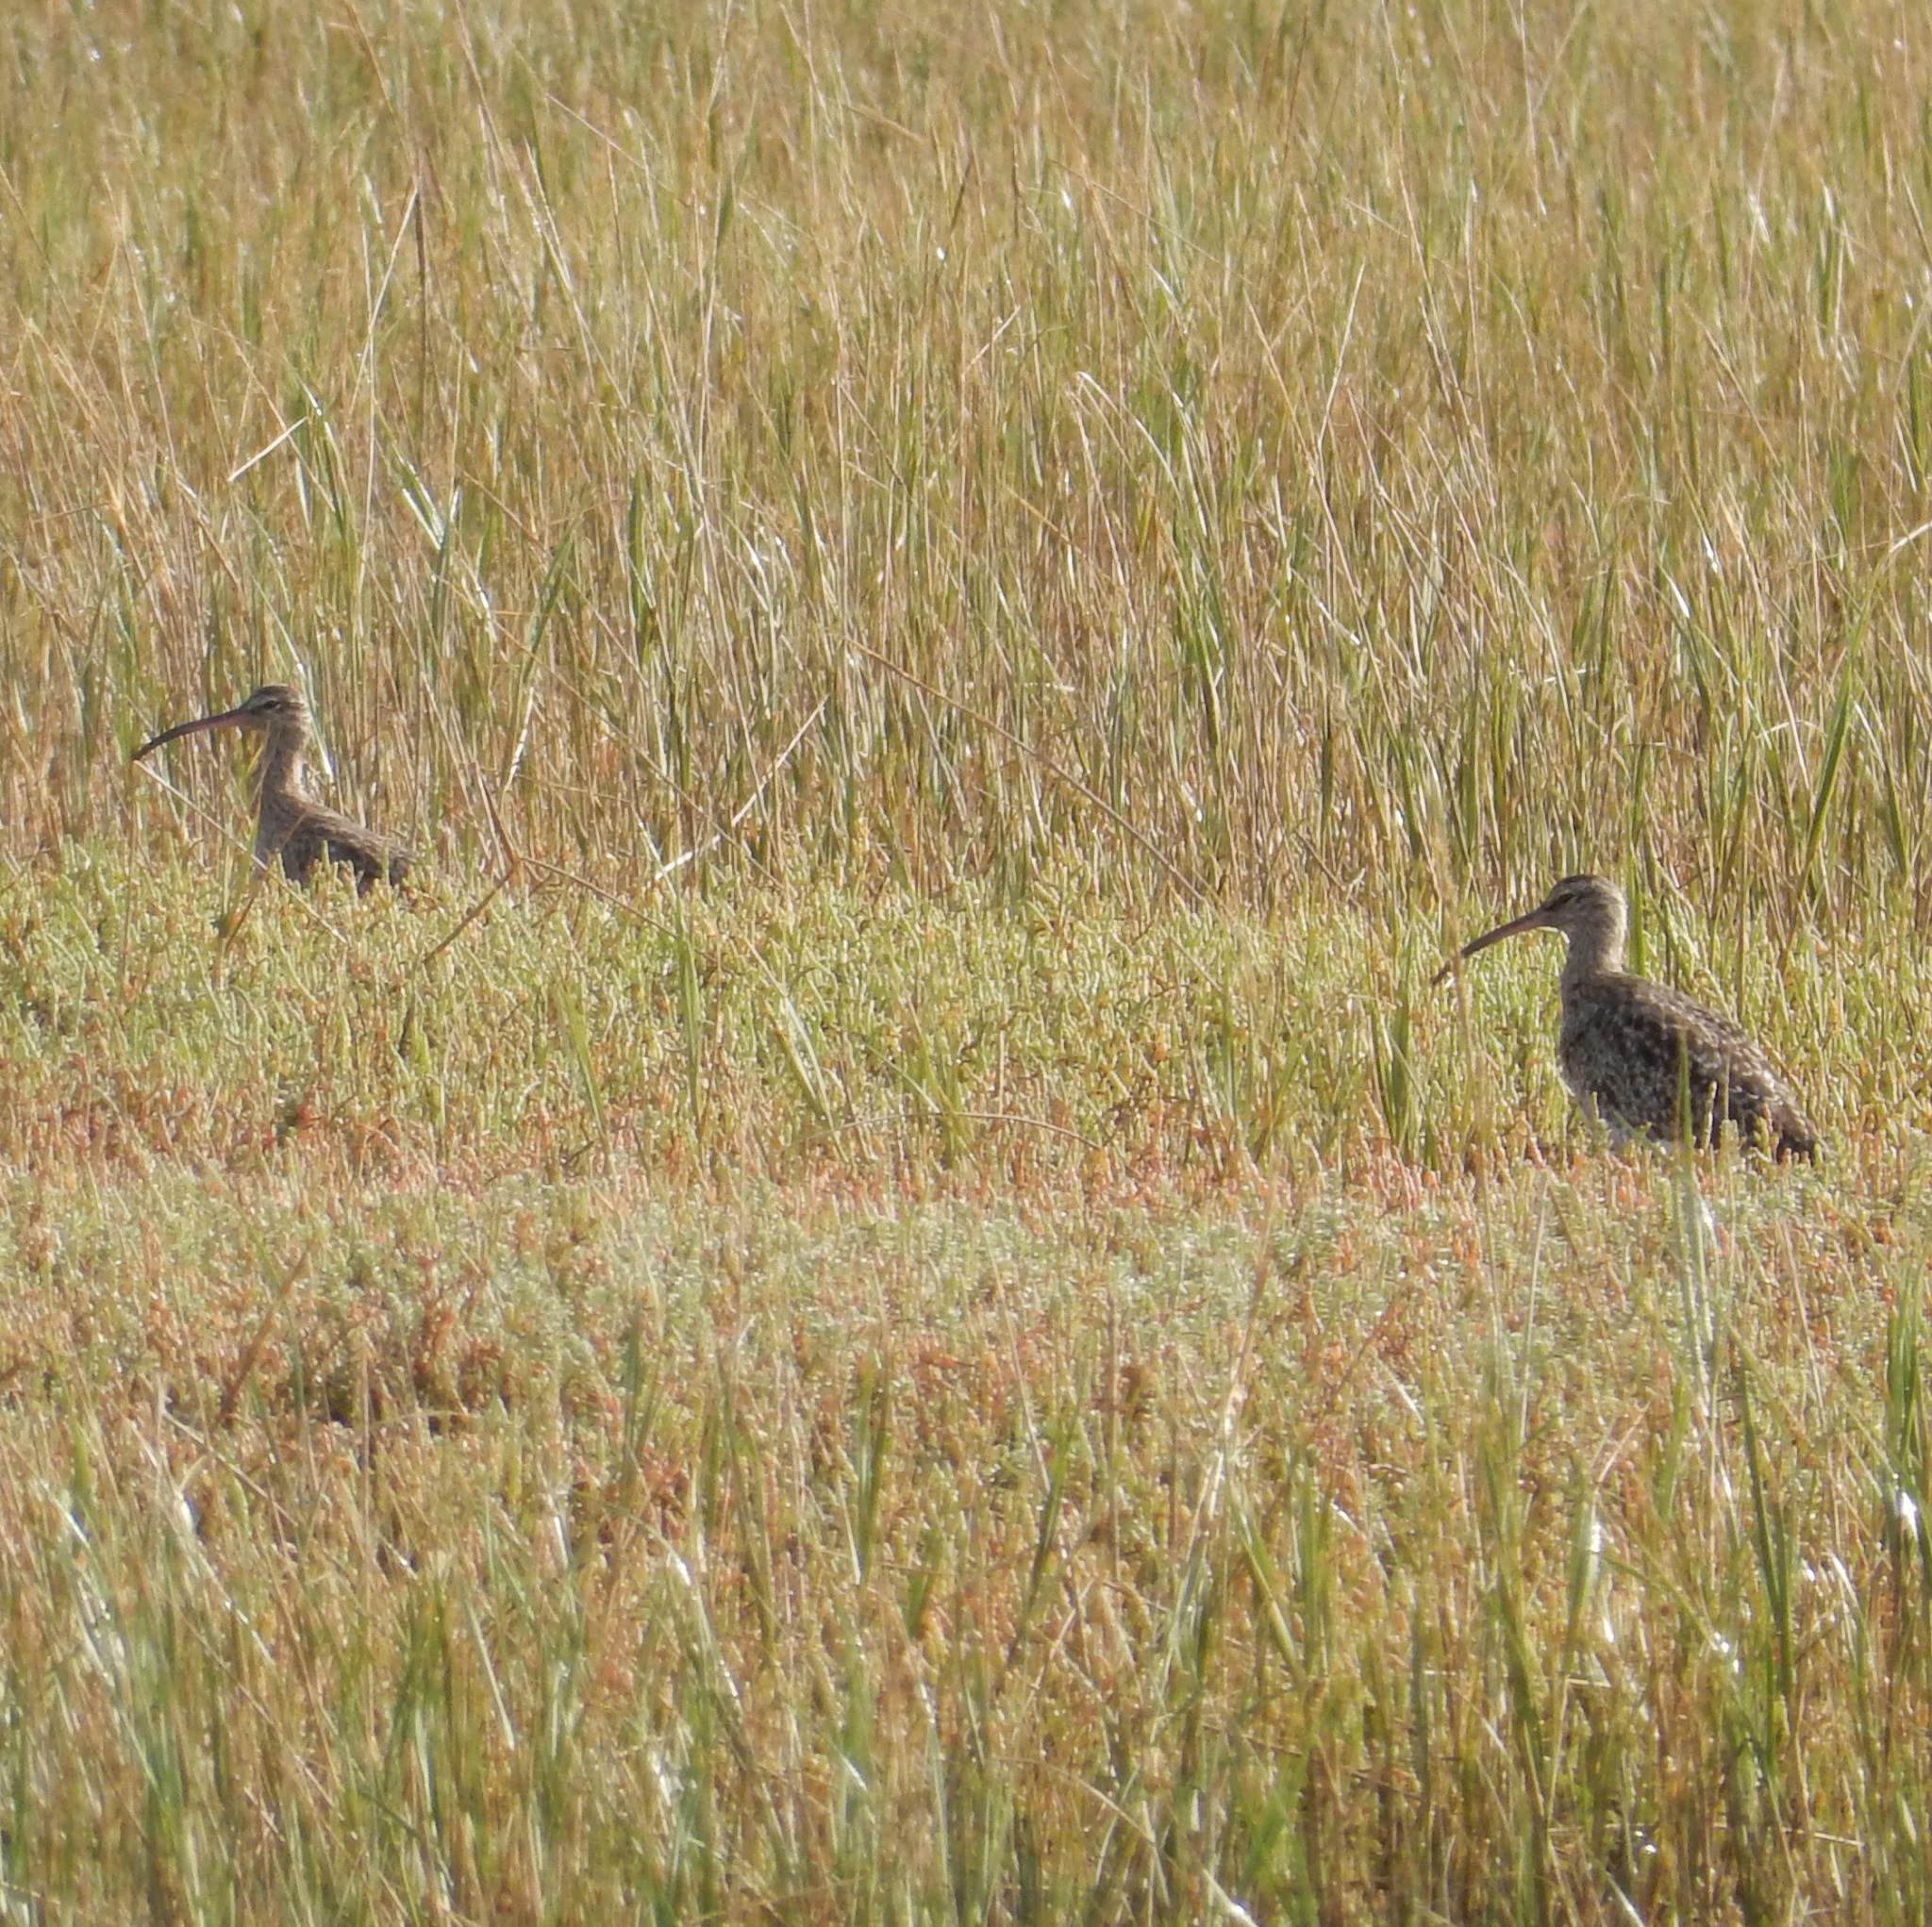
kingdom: Animalia
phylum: Chordata
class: Aves
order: Charadriiformes
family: Scolopacidae
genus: Numenius
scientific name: Numenius phaeopus
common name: Whimbrel
